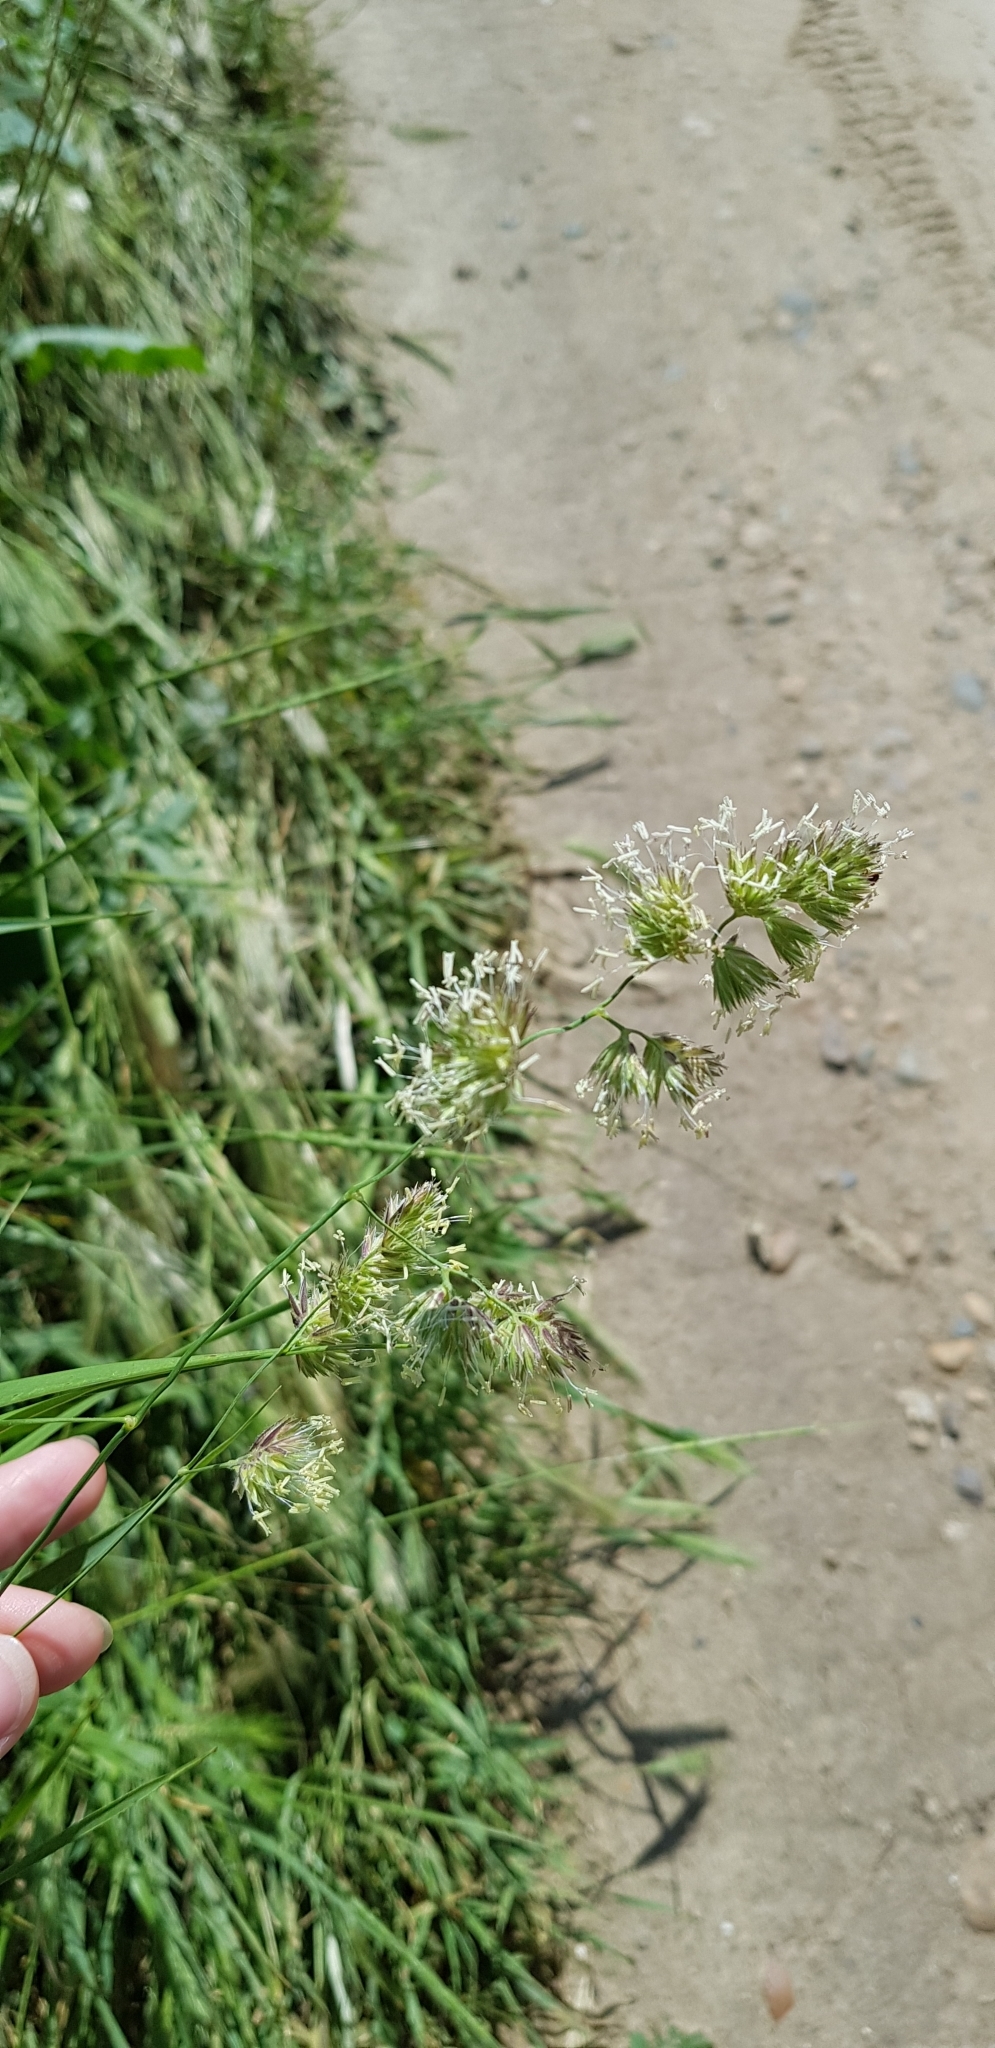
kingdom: Plantae
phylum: Tracheophyta
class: Liliopsida
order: Poales
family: Poaceae
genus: Dactylis
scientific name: Dactylis glomerata
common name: Orchardgrass
